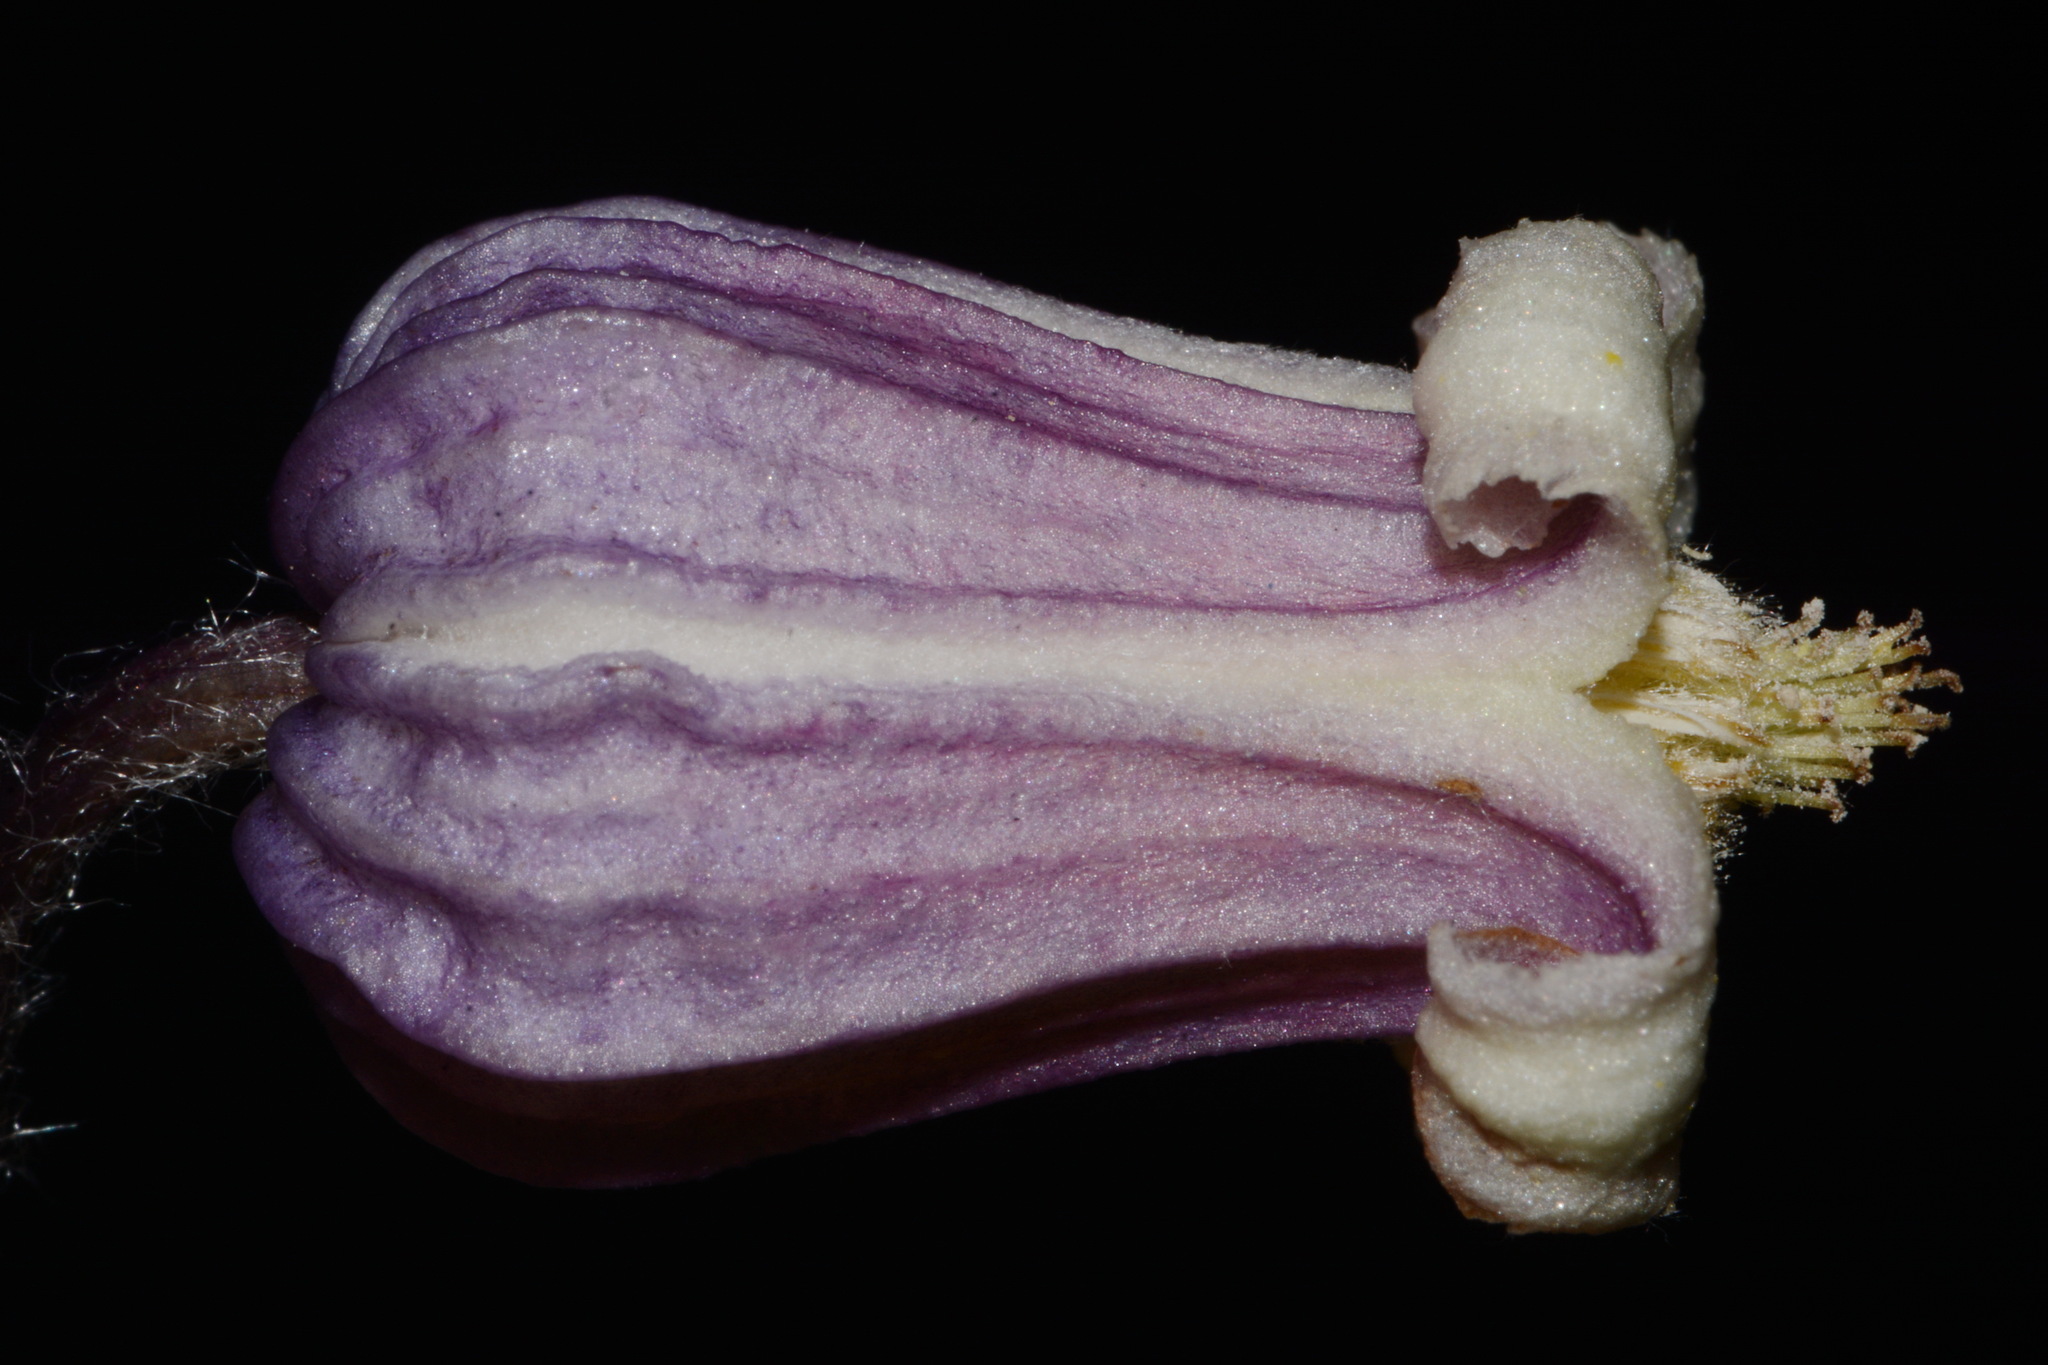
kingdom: Plantae
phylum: Tracheophyta
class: Magnoliopsida
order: Ranunculales
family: Ranunculaceae
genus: Clematis
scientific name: Clematis fremontii
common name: Fremont's clematis
